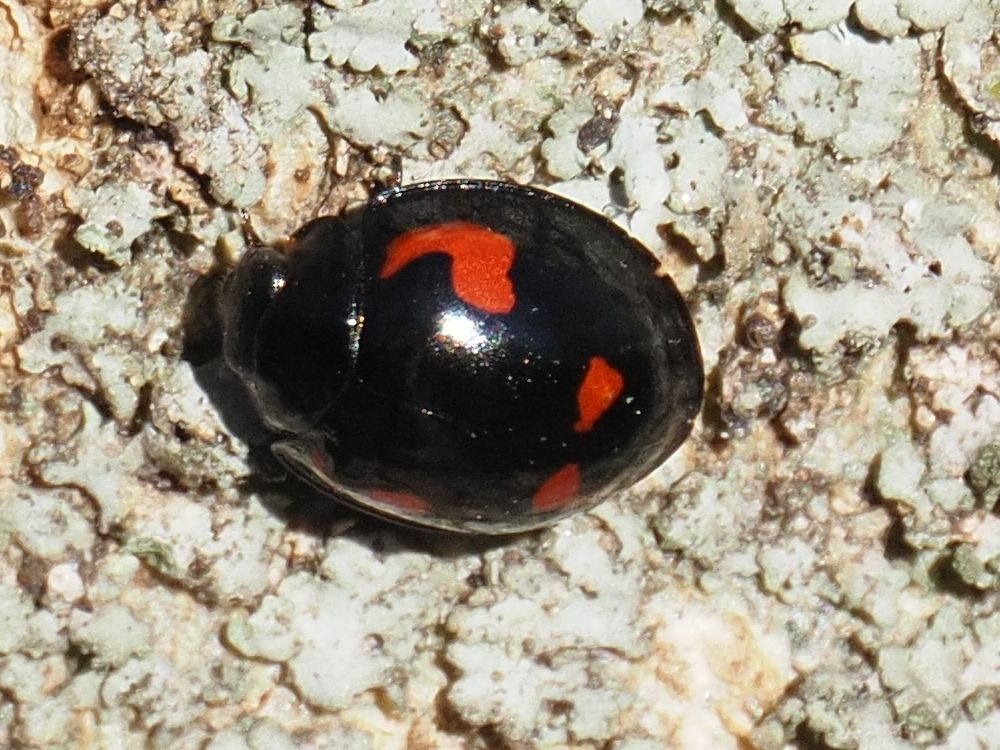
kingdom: Animalia
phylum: Arthropoda
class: Insecta
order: Coleoptera
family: Coccinellidae
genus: Brumus
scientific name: Brumus quadripustulatus
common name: Ladybird beetle
